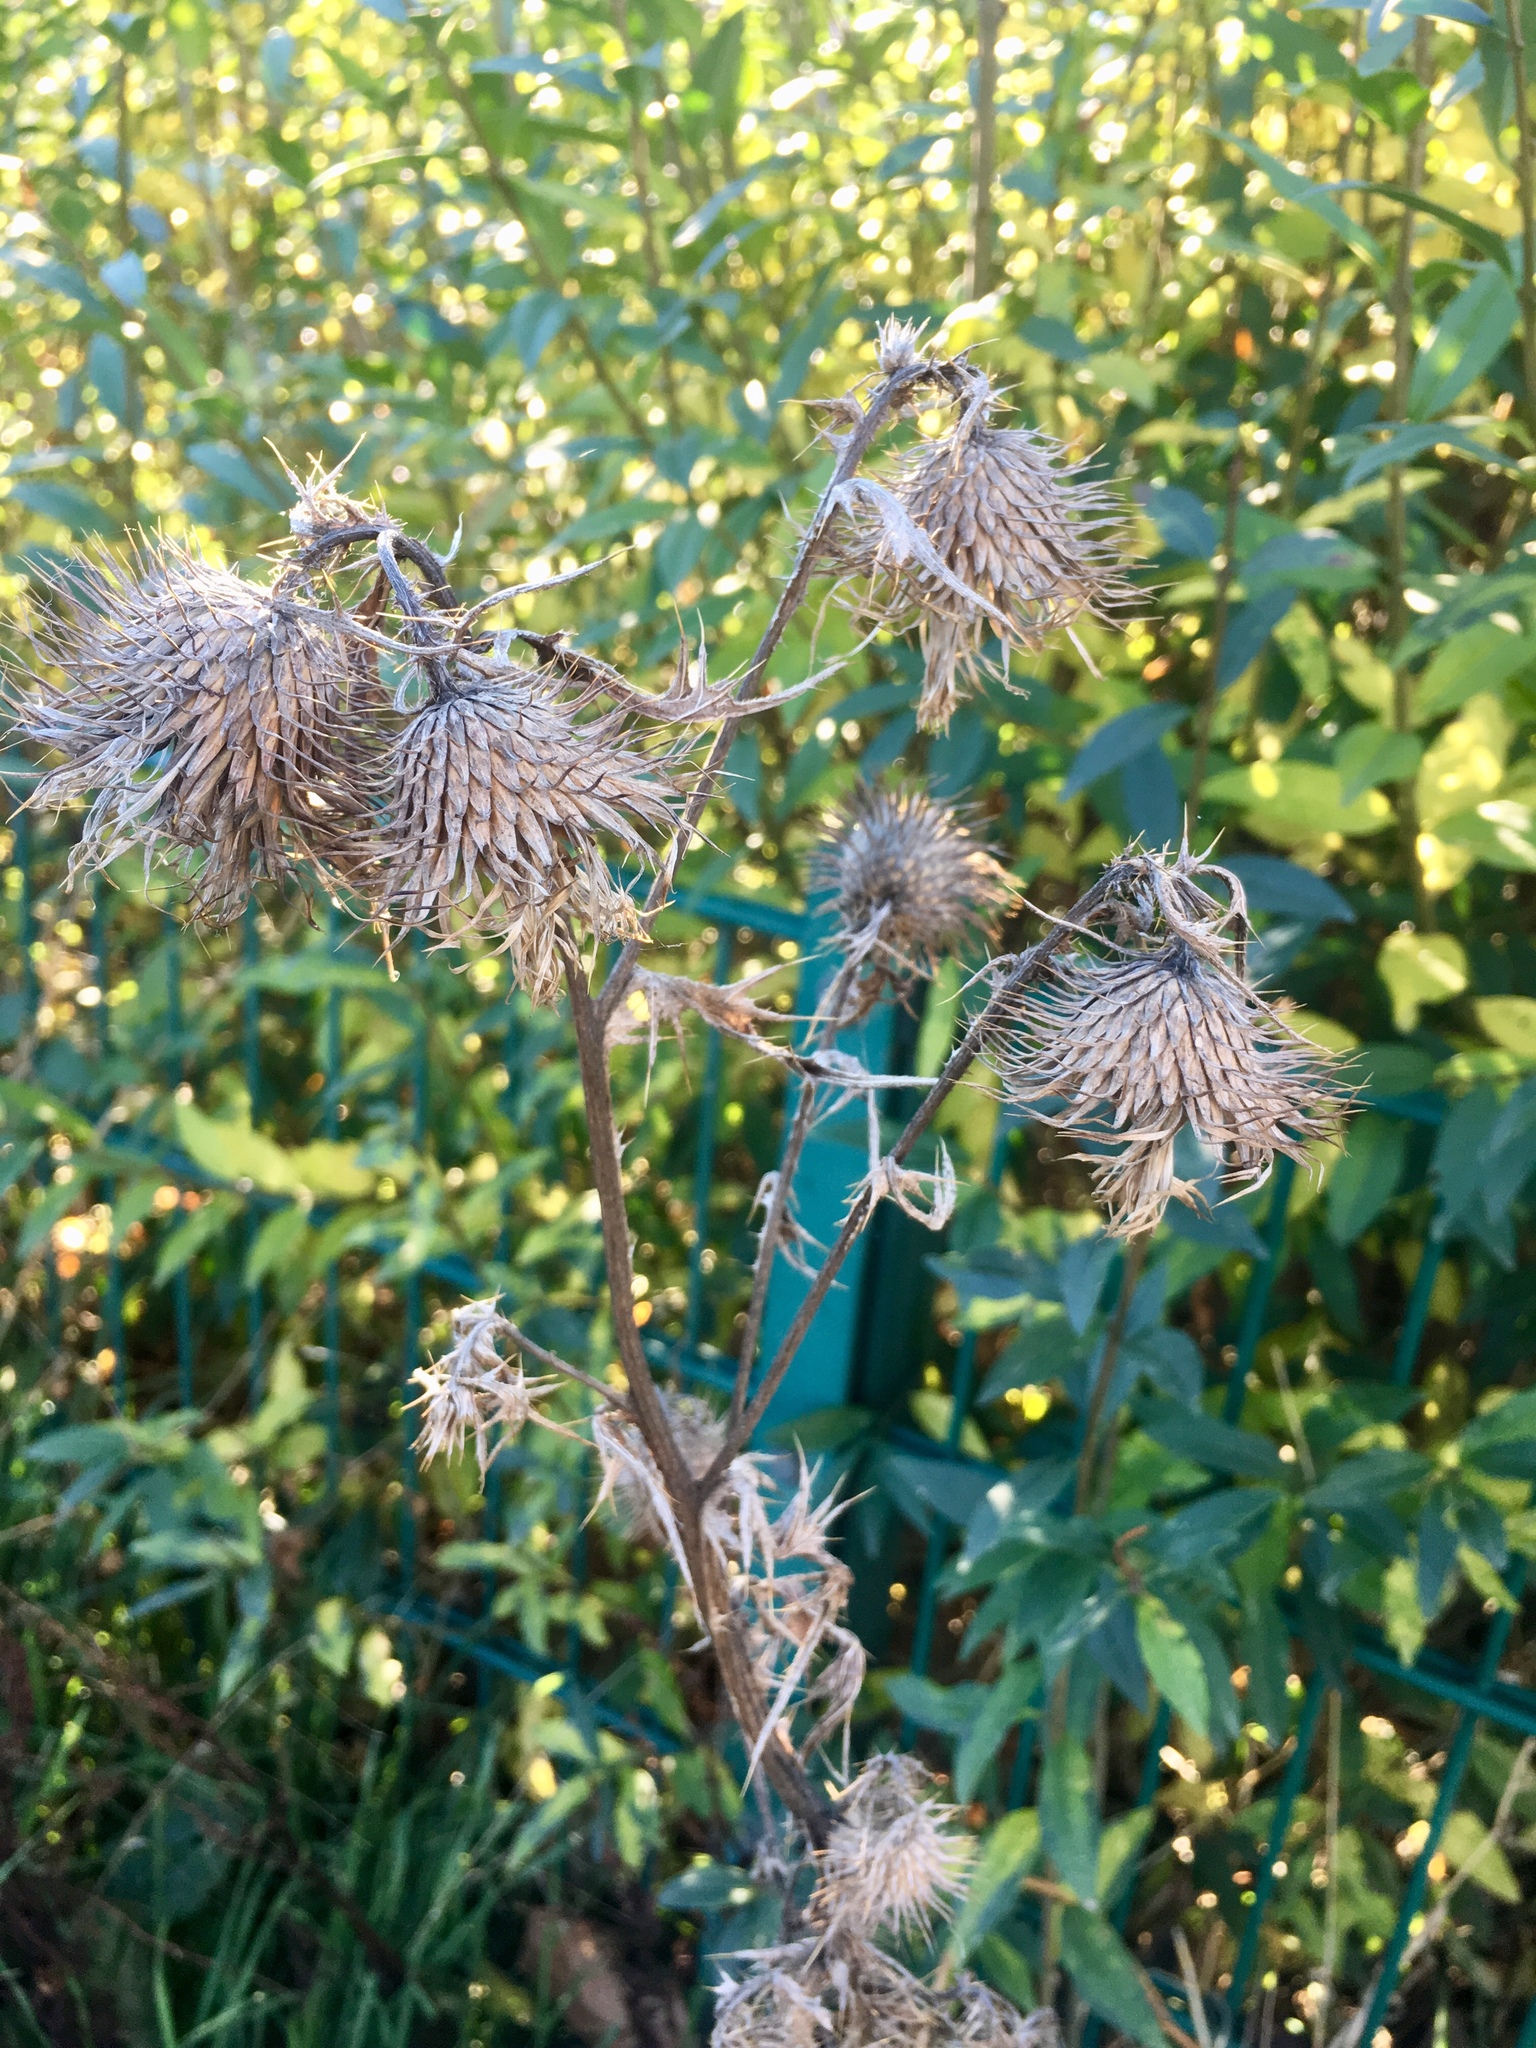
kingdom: Plantae
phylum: Tracheophyta
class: Magnoliopsida
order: Asterales
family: Asteraceae
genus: Cirsium
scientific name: Cirsium vulgare
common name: Bull thistle
